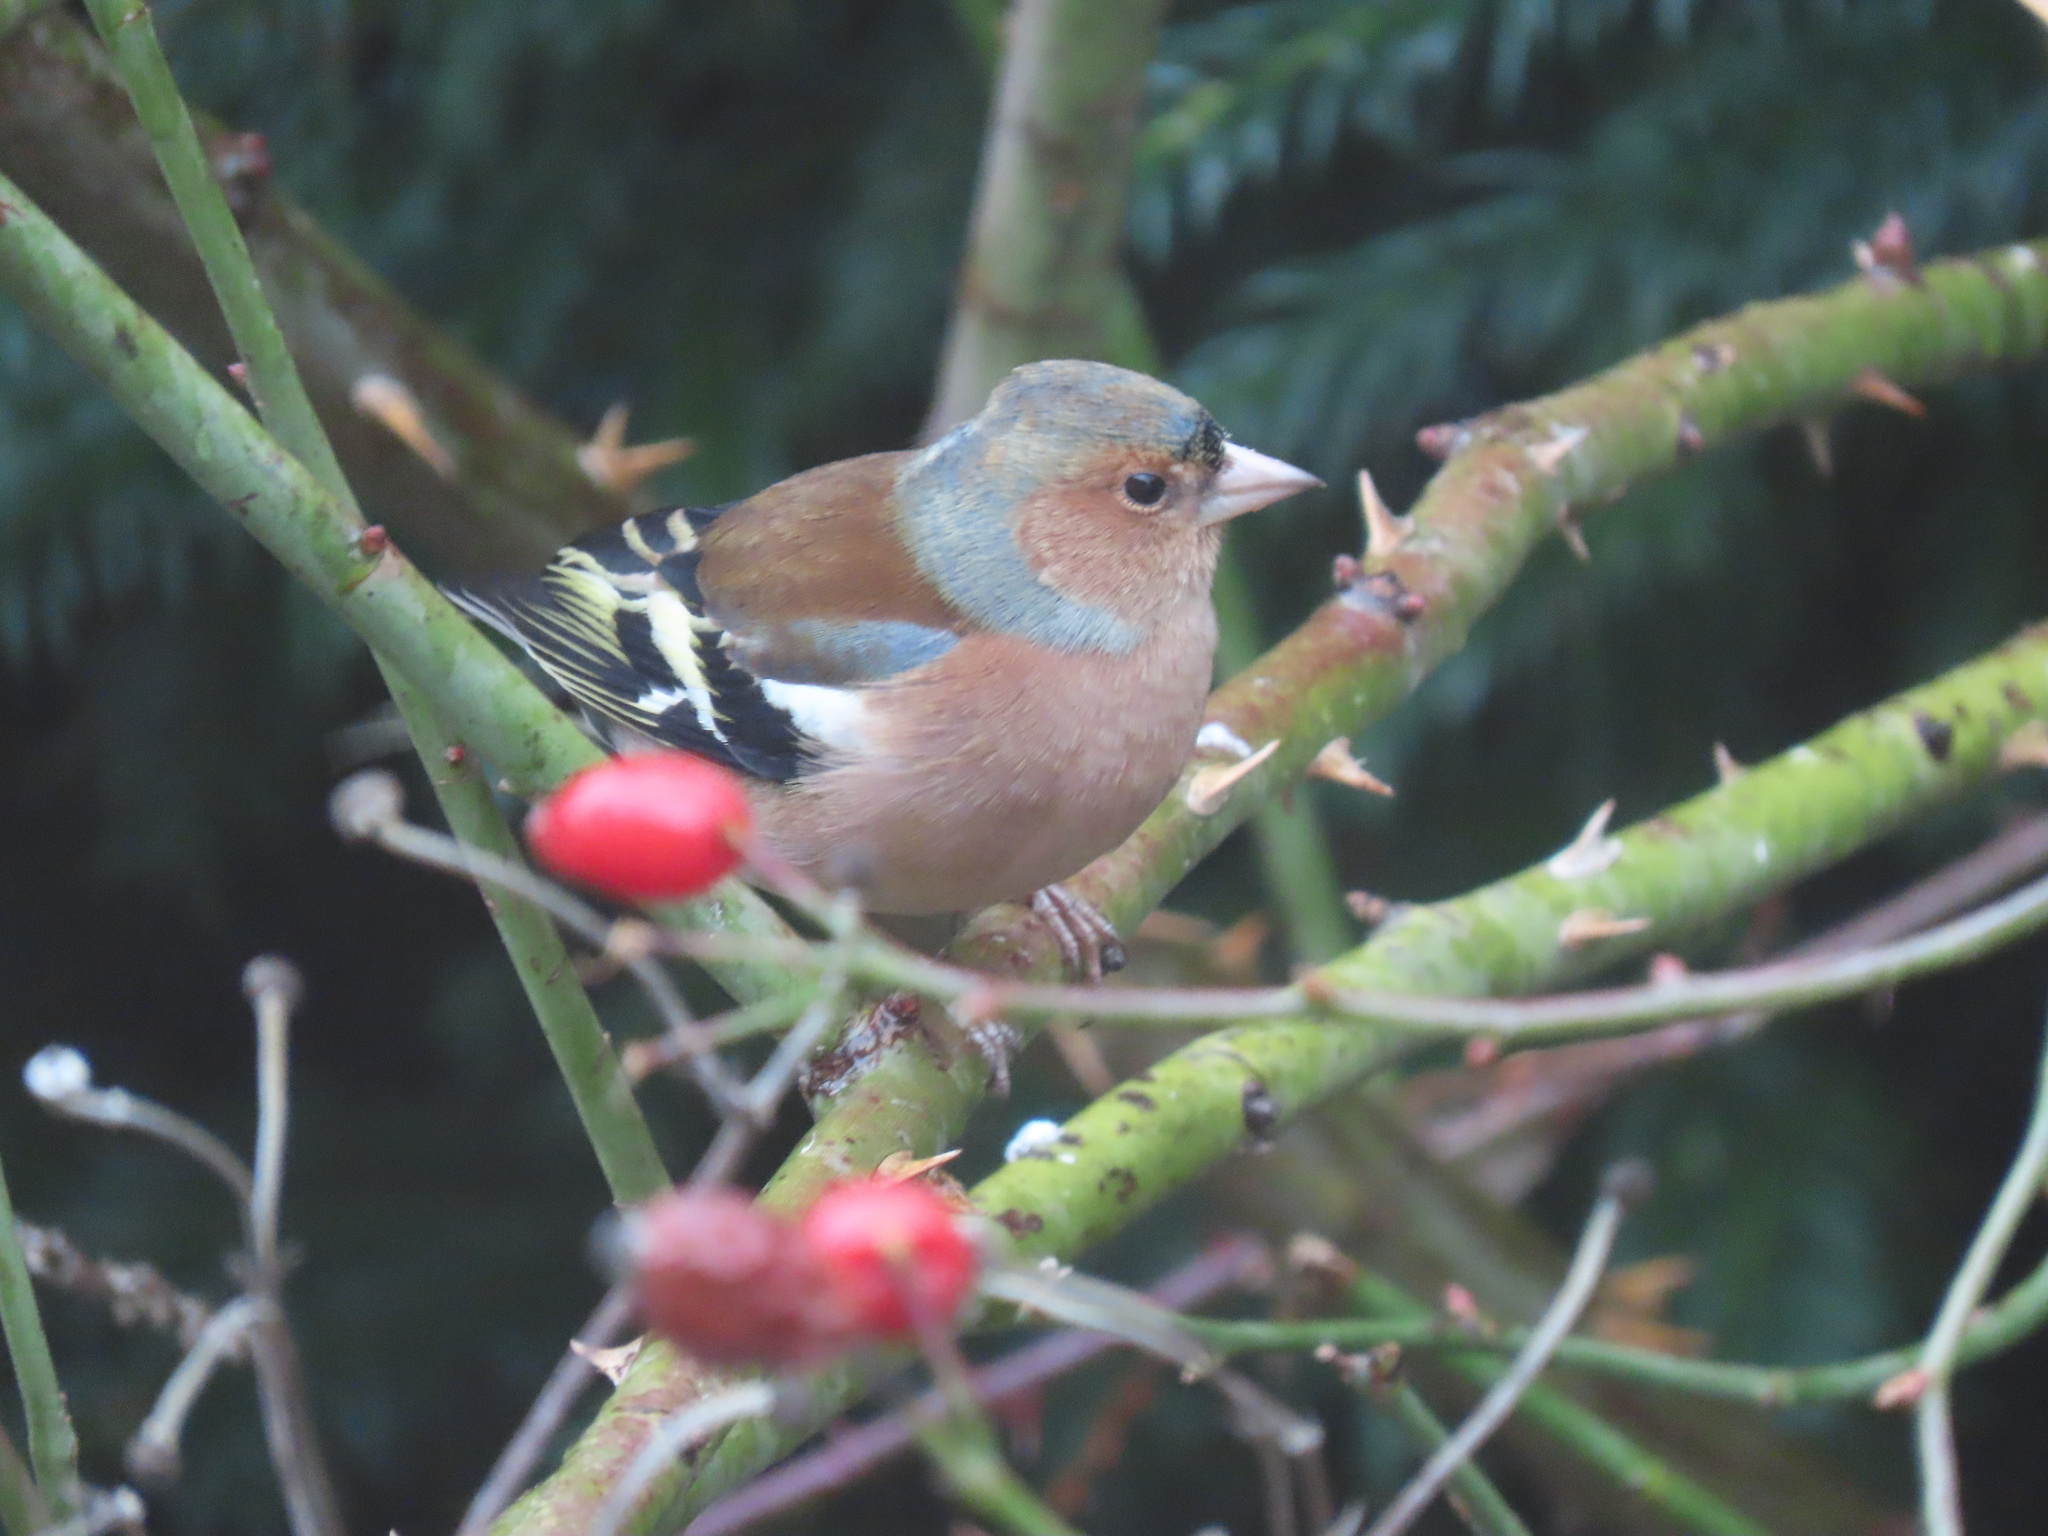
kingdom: Animalia
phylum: Chordata
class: Aves
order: Passeriformes
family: Fringillidae
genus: Fringilla
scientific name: Fringilla coelebs
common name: Common chaffinch
